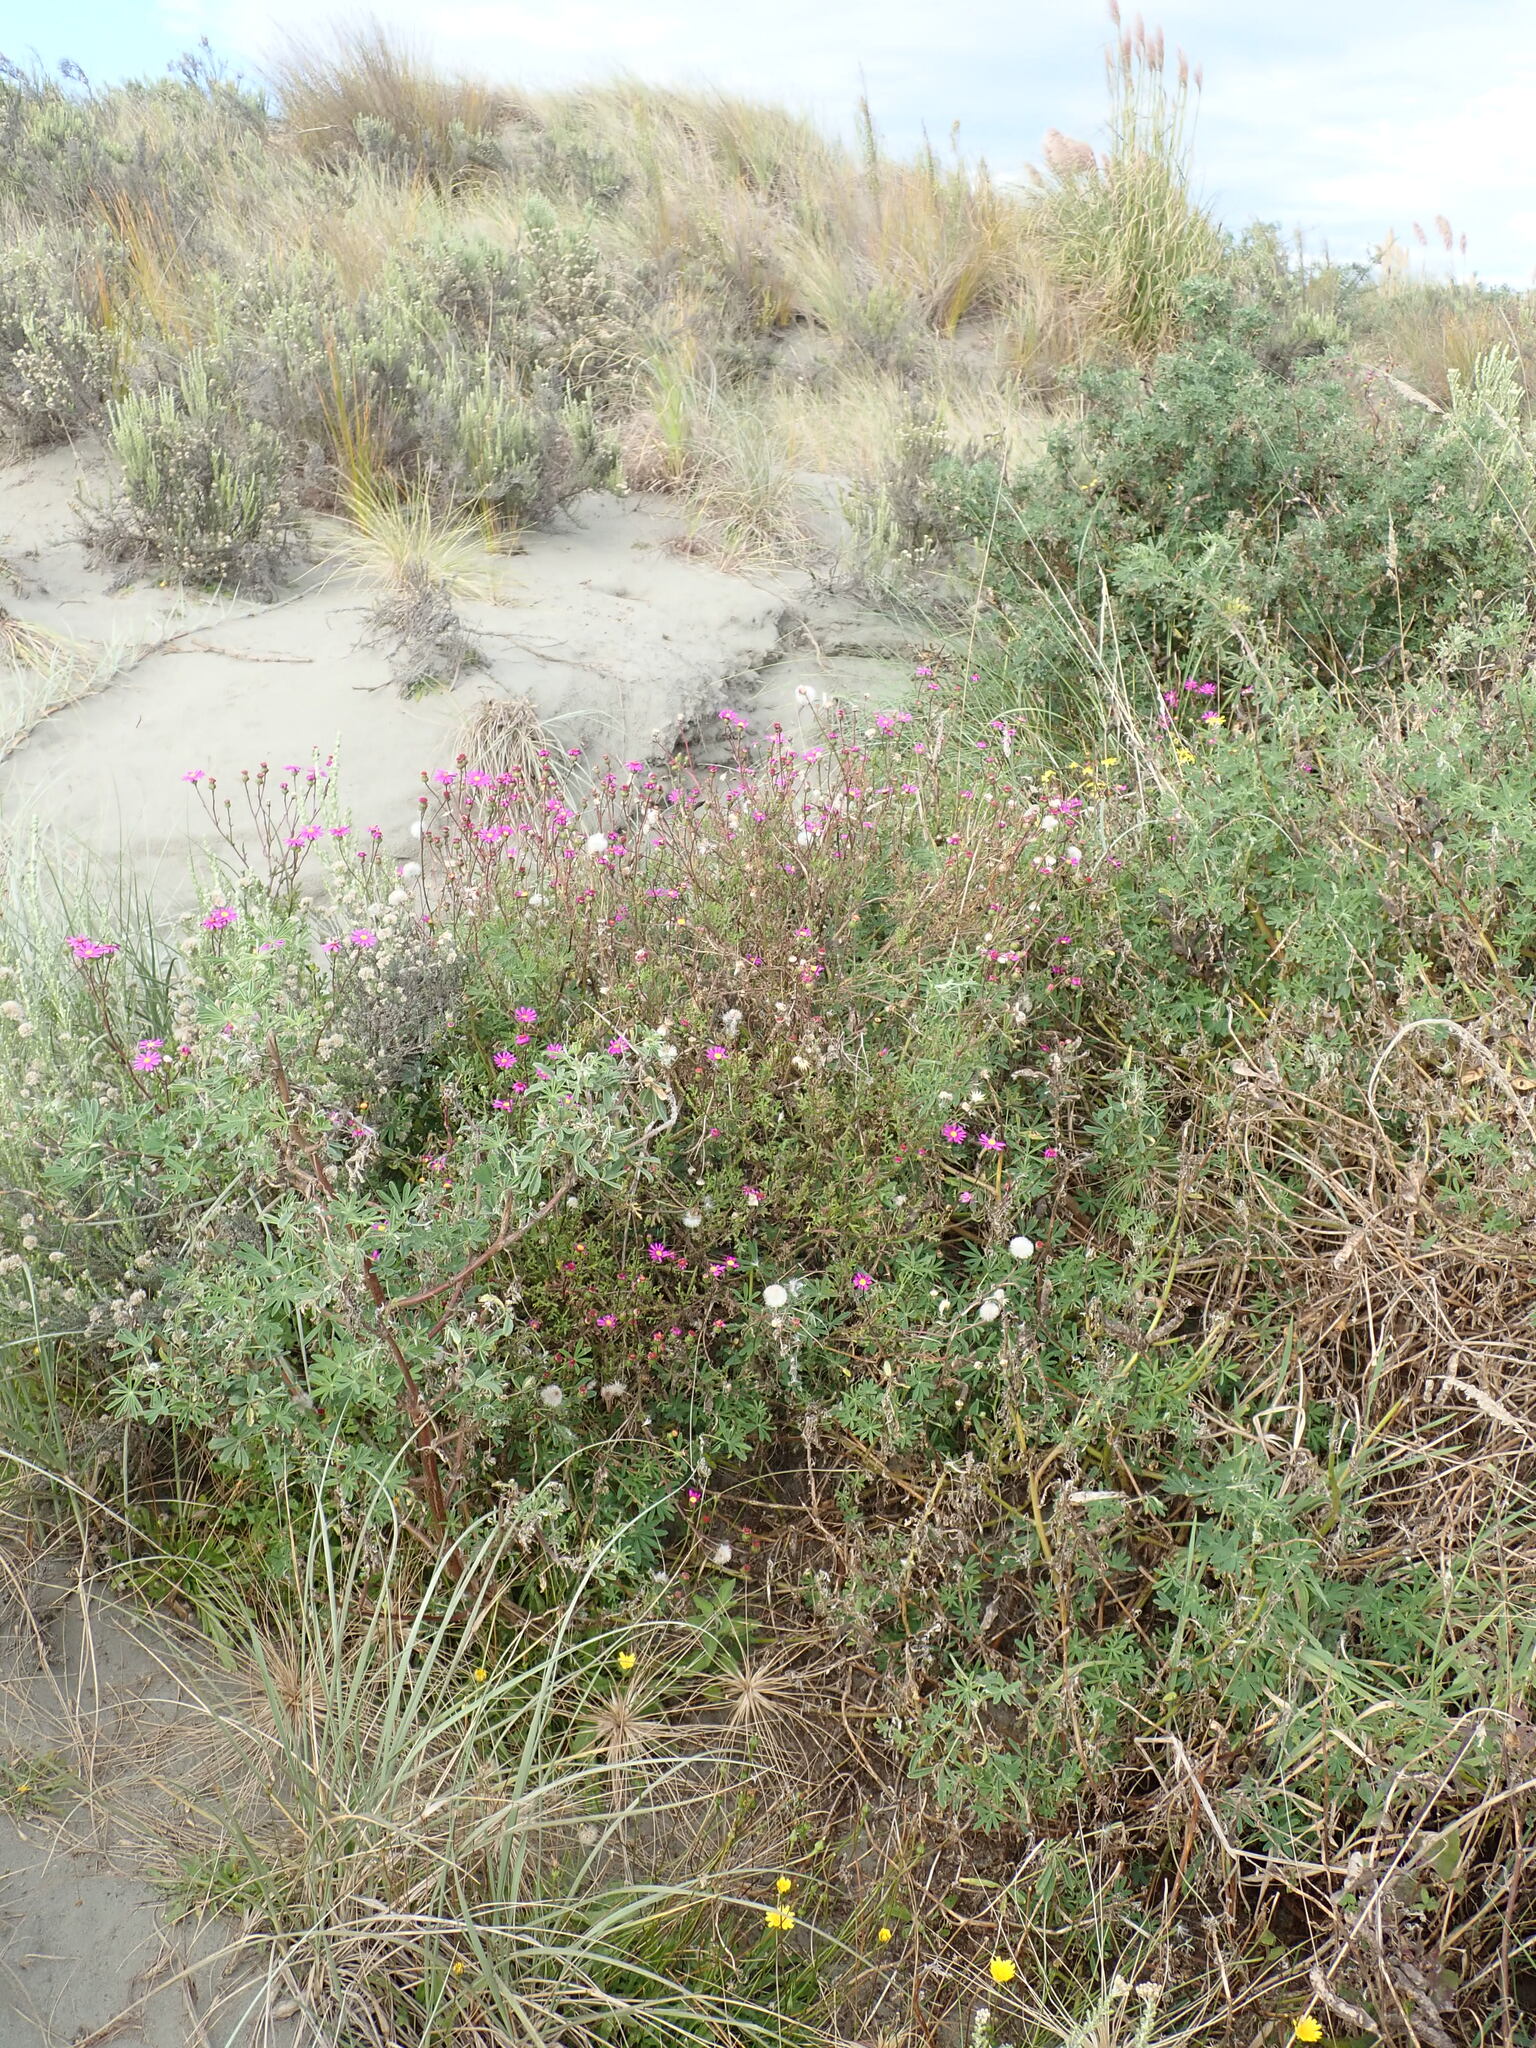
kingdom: Plantae
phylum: Tracheophyta
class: Magnoliopsida
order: Asterales
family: Asteraceae
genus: Senecio
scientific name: Senecio elegans
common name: Purple groundsel
